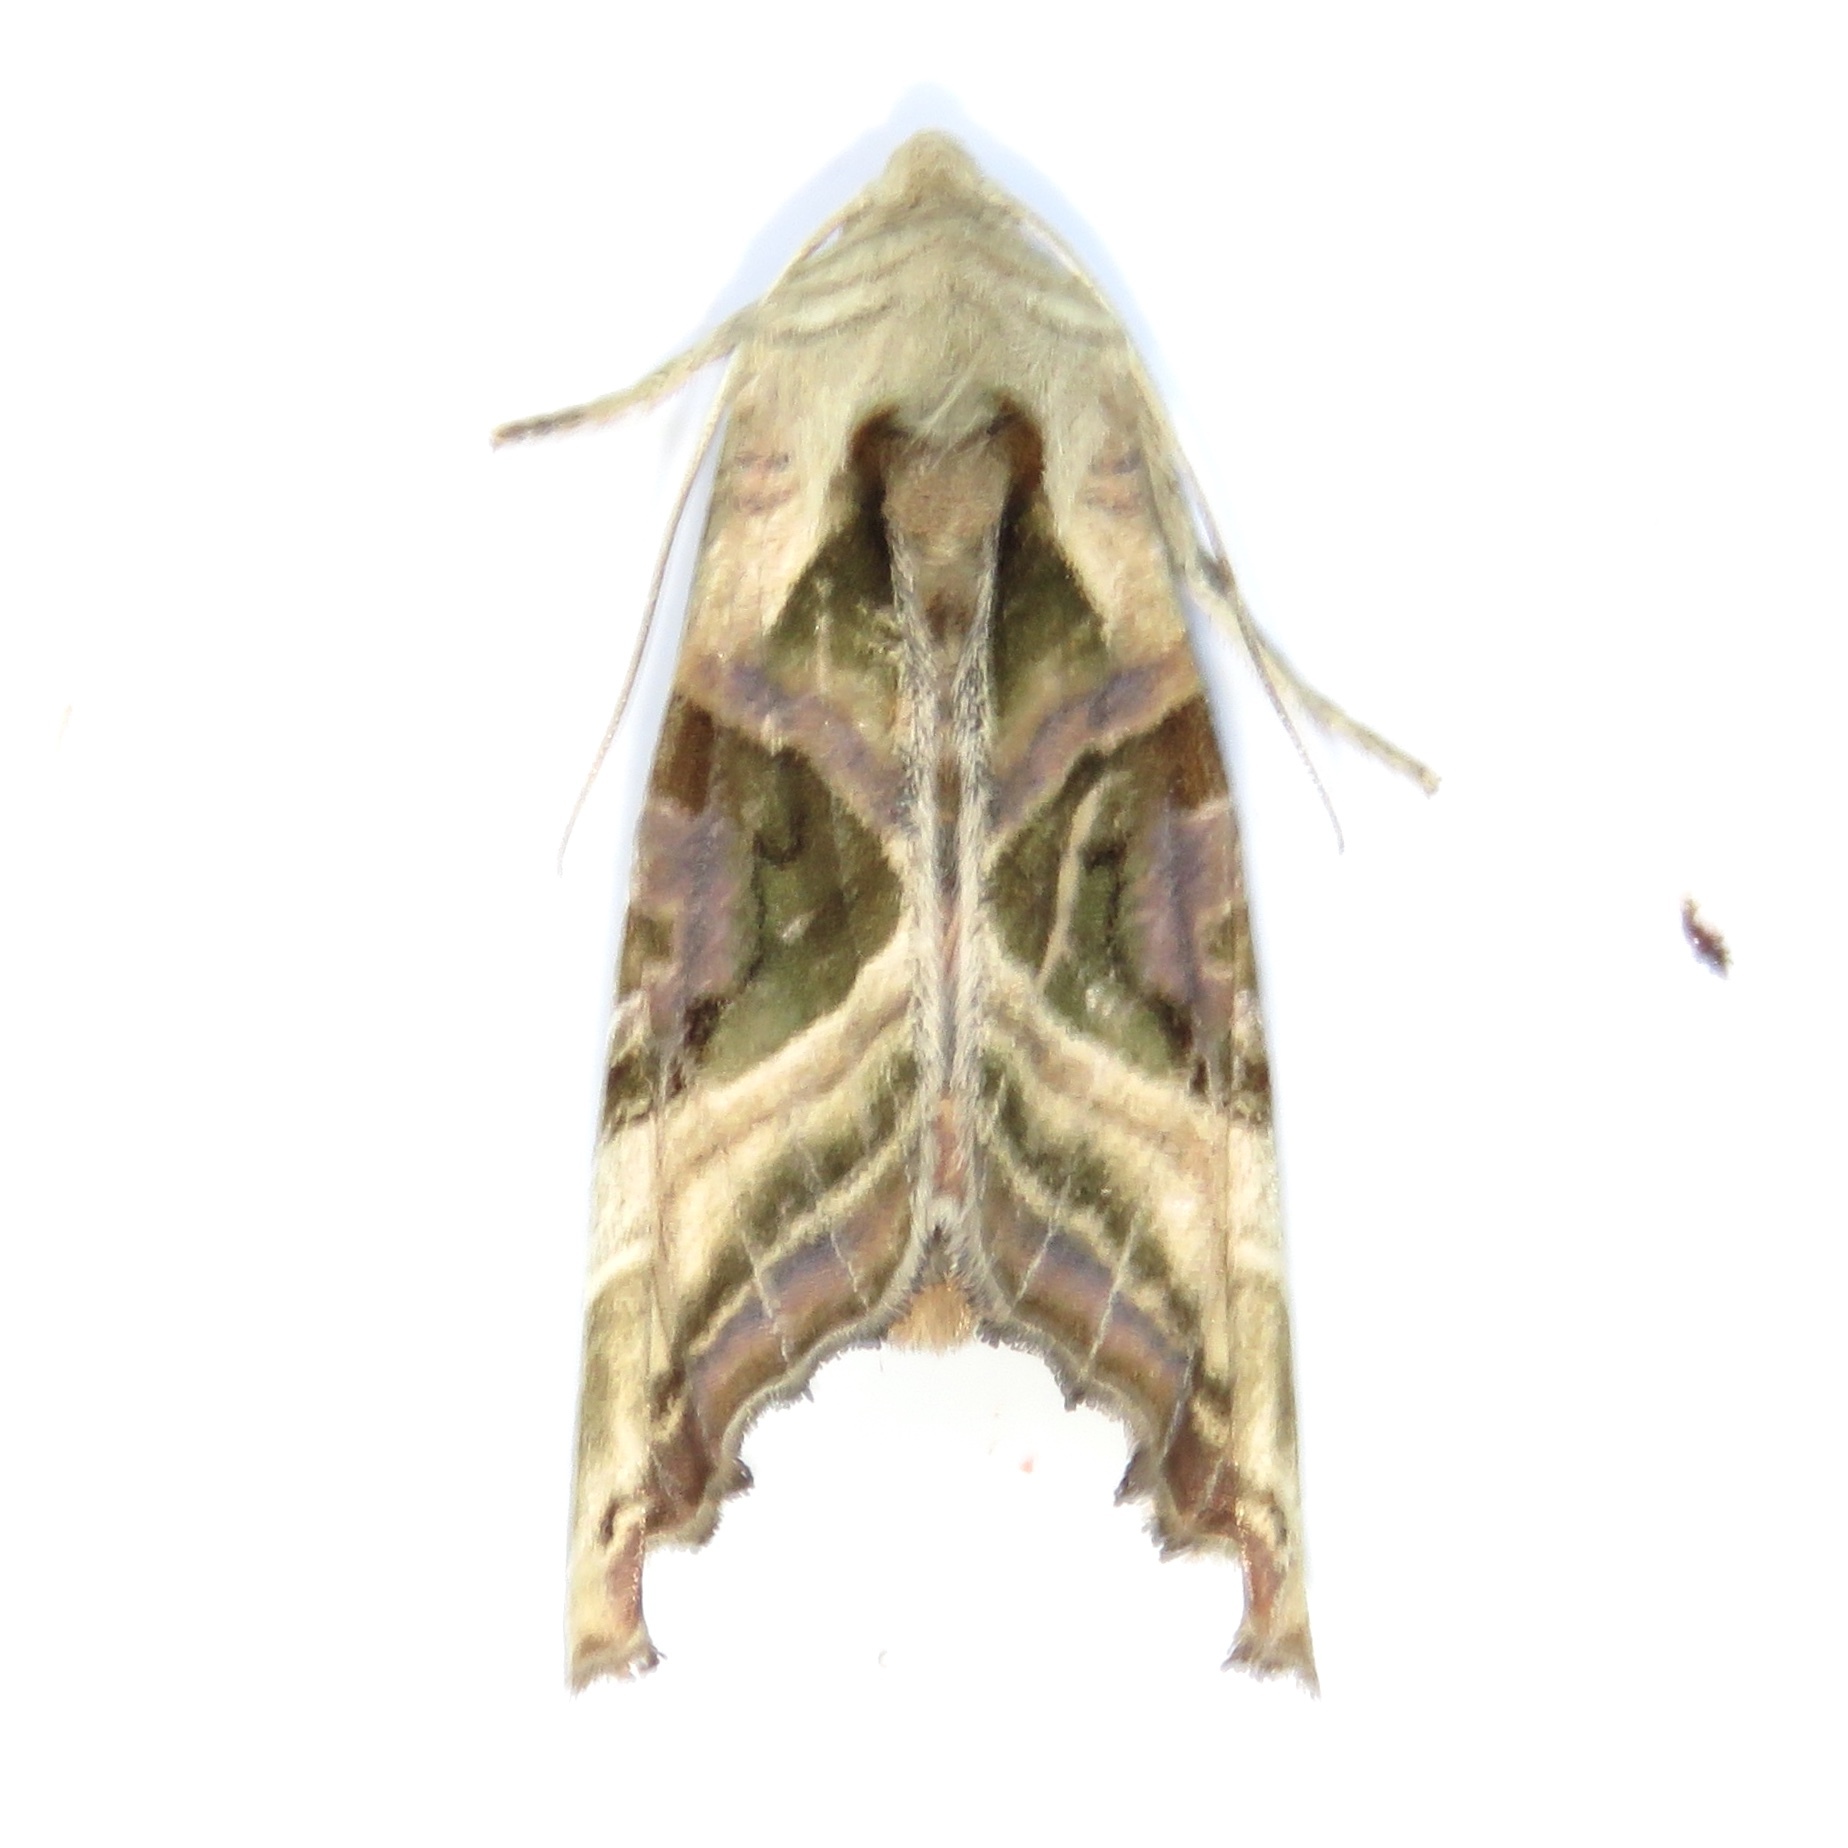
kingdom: Animalia
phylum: Arthropoda
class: Insecta
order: Lepidoptera
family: Noctuidae
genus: Phlogophora
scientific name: Phlogophora iris
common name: Olive angle shades
